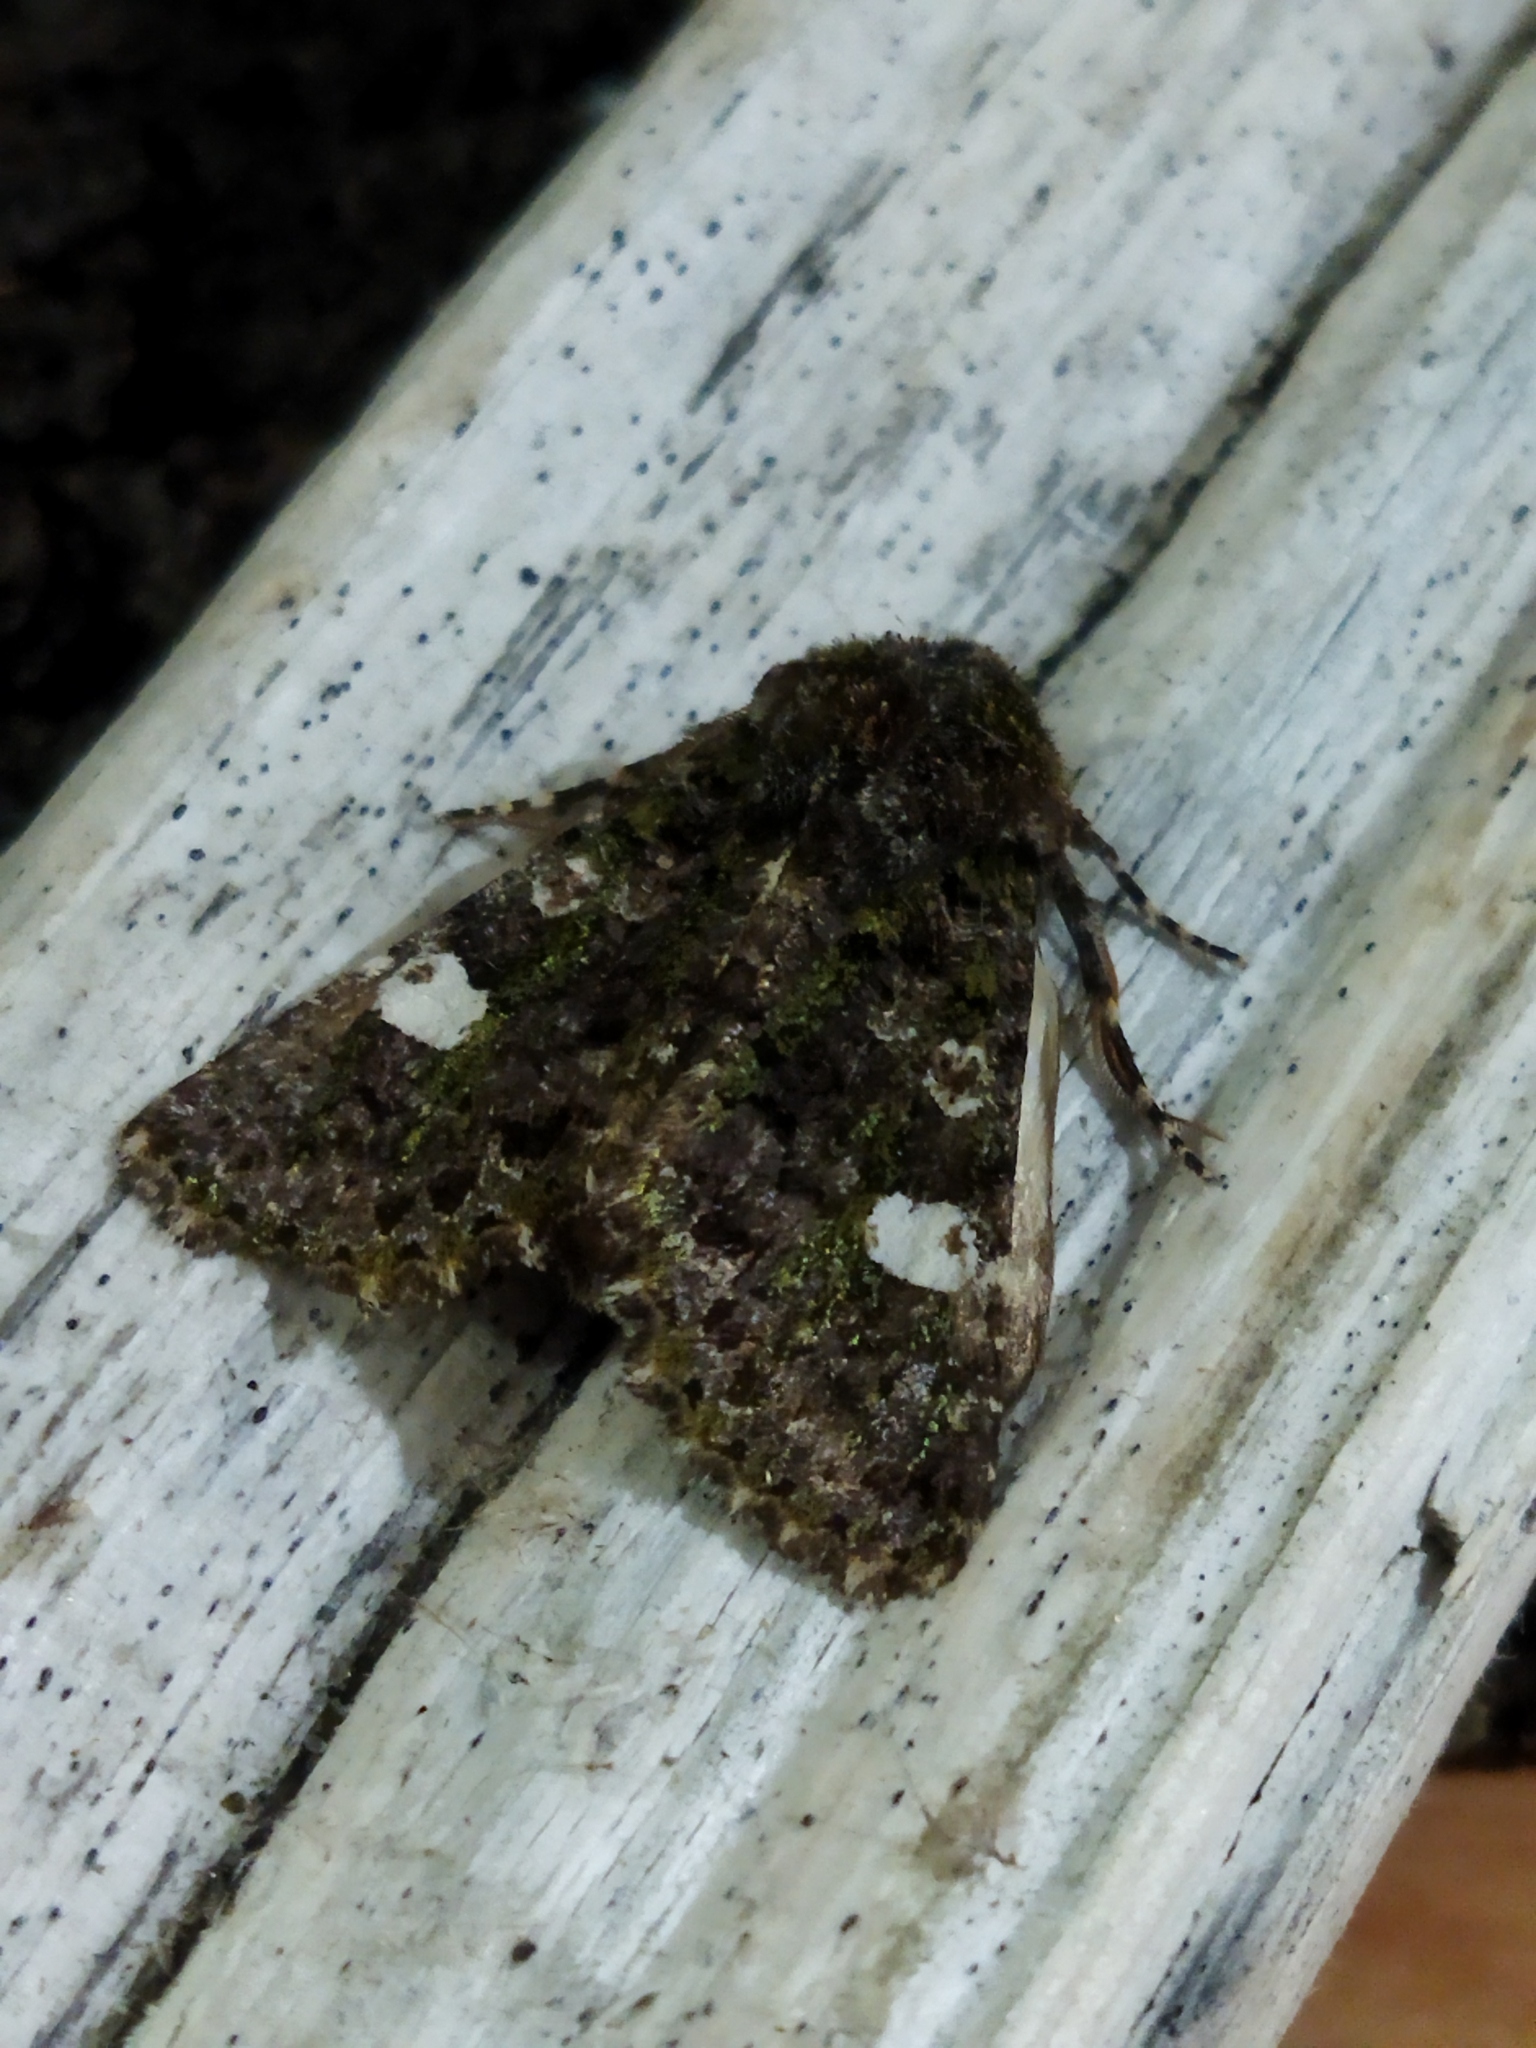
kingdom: Animalia
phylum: Arthropoda
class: Insecta
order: Lepidoptera
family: Noctuidae
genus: Valeria
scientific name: Valeria oleagina
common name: Green-brindled dot
